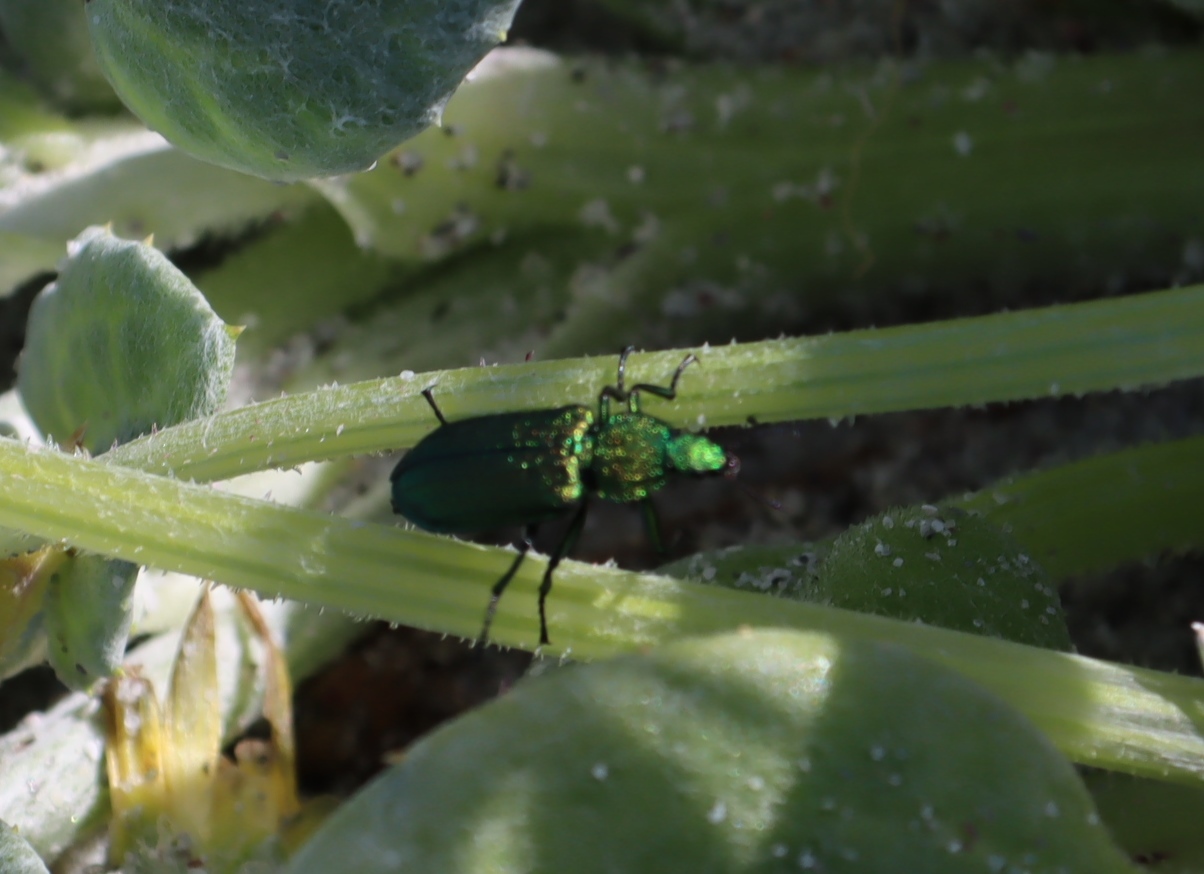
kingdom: Animalia
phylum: Arthropoda
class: Insecta
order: Coleoptera
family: Melyridae
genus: Melyris
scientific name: Melyris viridis
